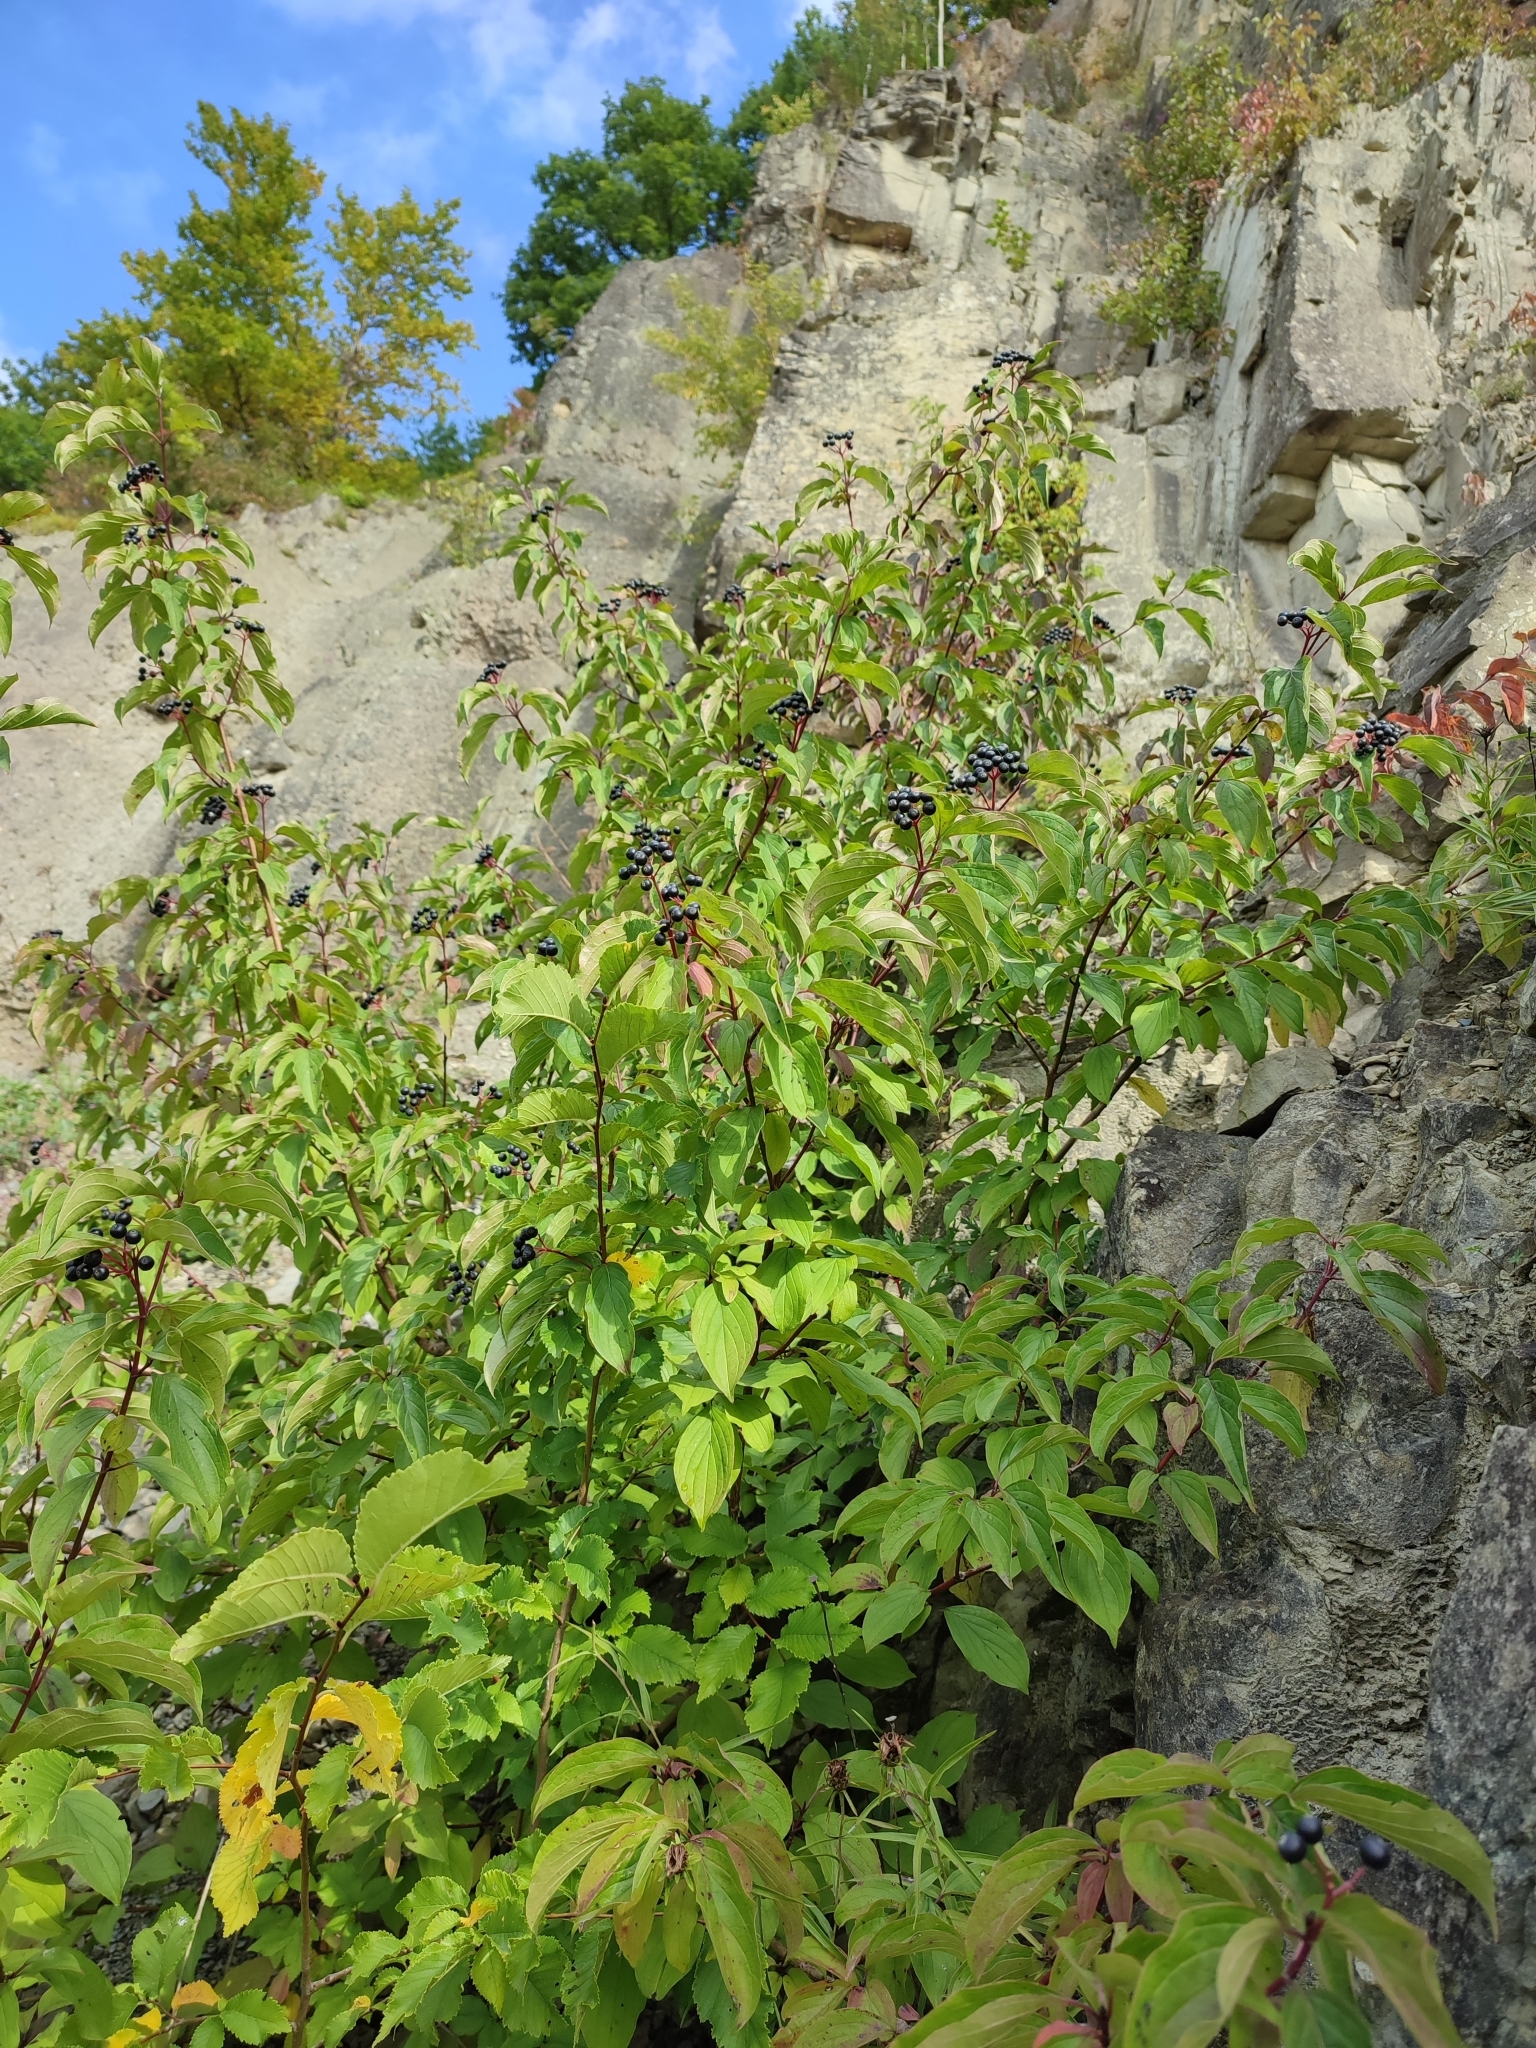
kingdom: Plantae
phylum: Tracheophyta
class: Magnoliopsida
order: Cornales
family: Cornaceae
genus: Cornus
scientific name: Cornus sanguinea
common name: Dogwood
